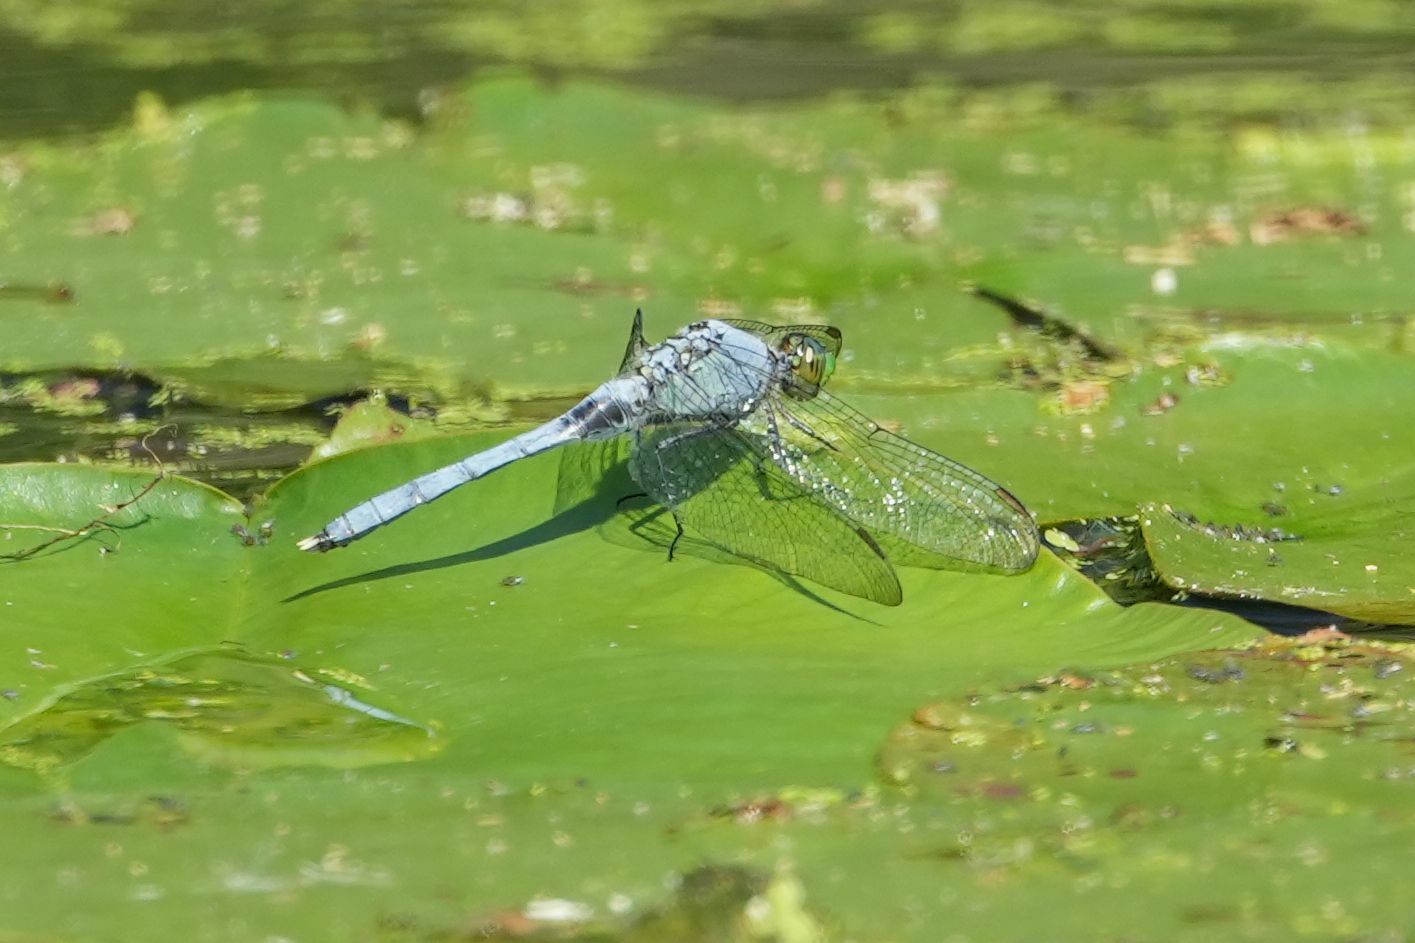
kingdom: Animalia
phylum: Arthropoda
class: Insecta
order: Odonata
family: Libellulidae
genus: Erythemis
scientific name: Erythemis simplicicollis
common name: Eastern pondhawk
